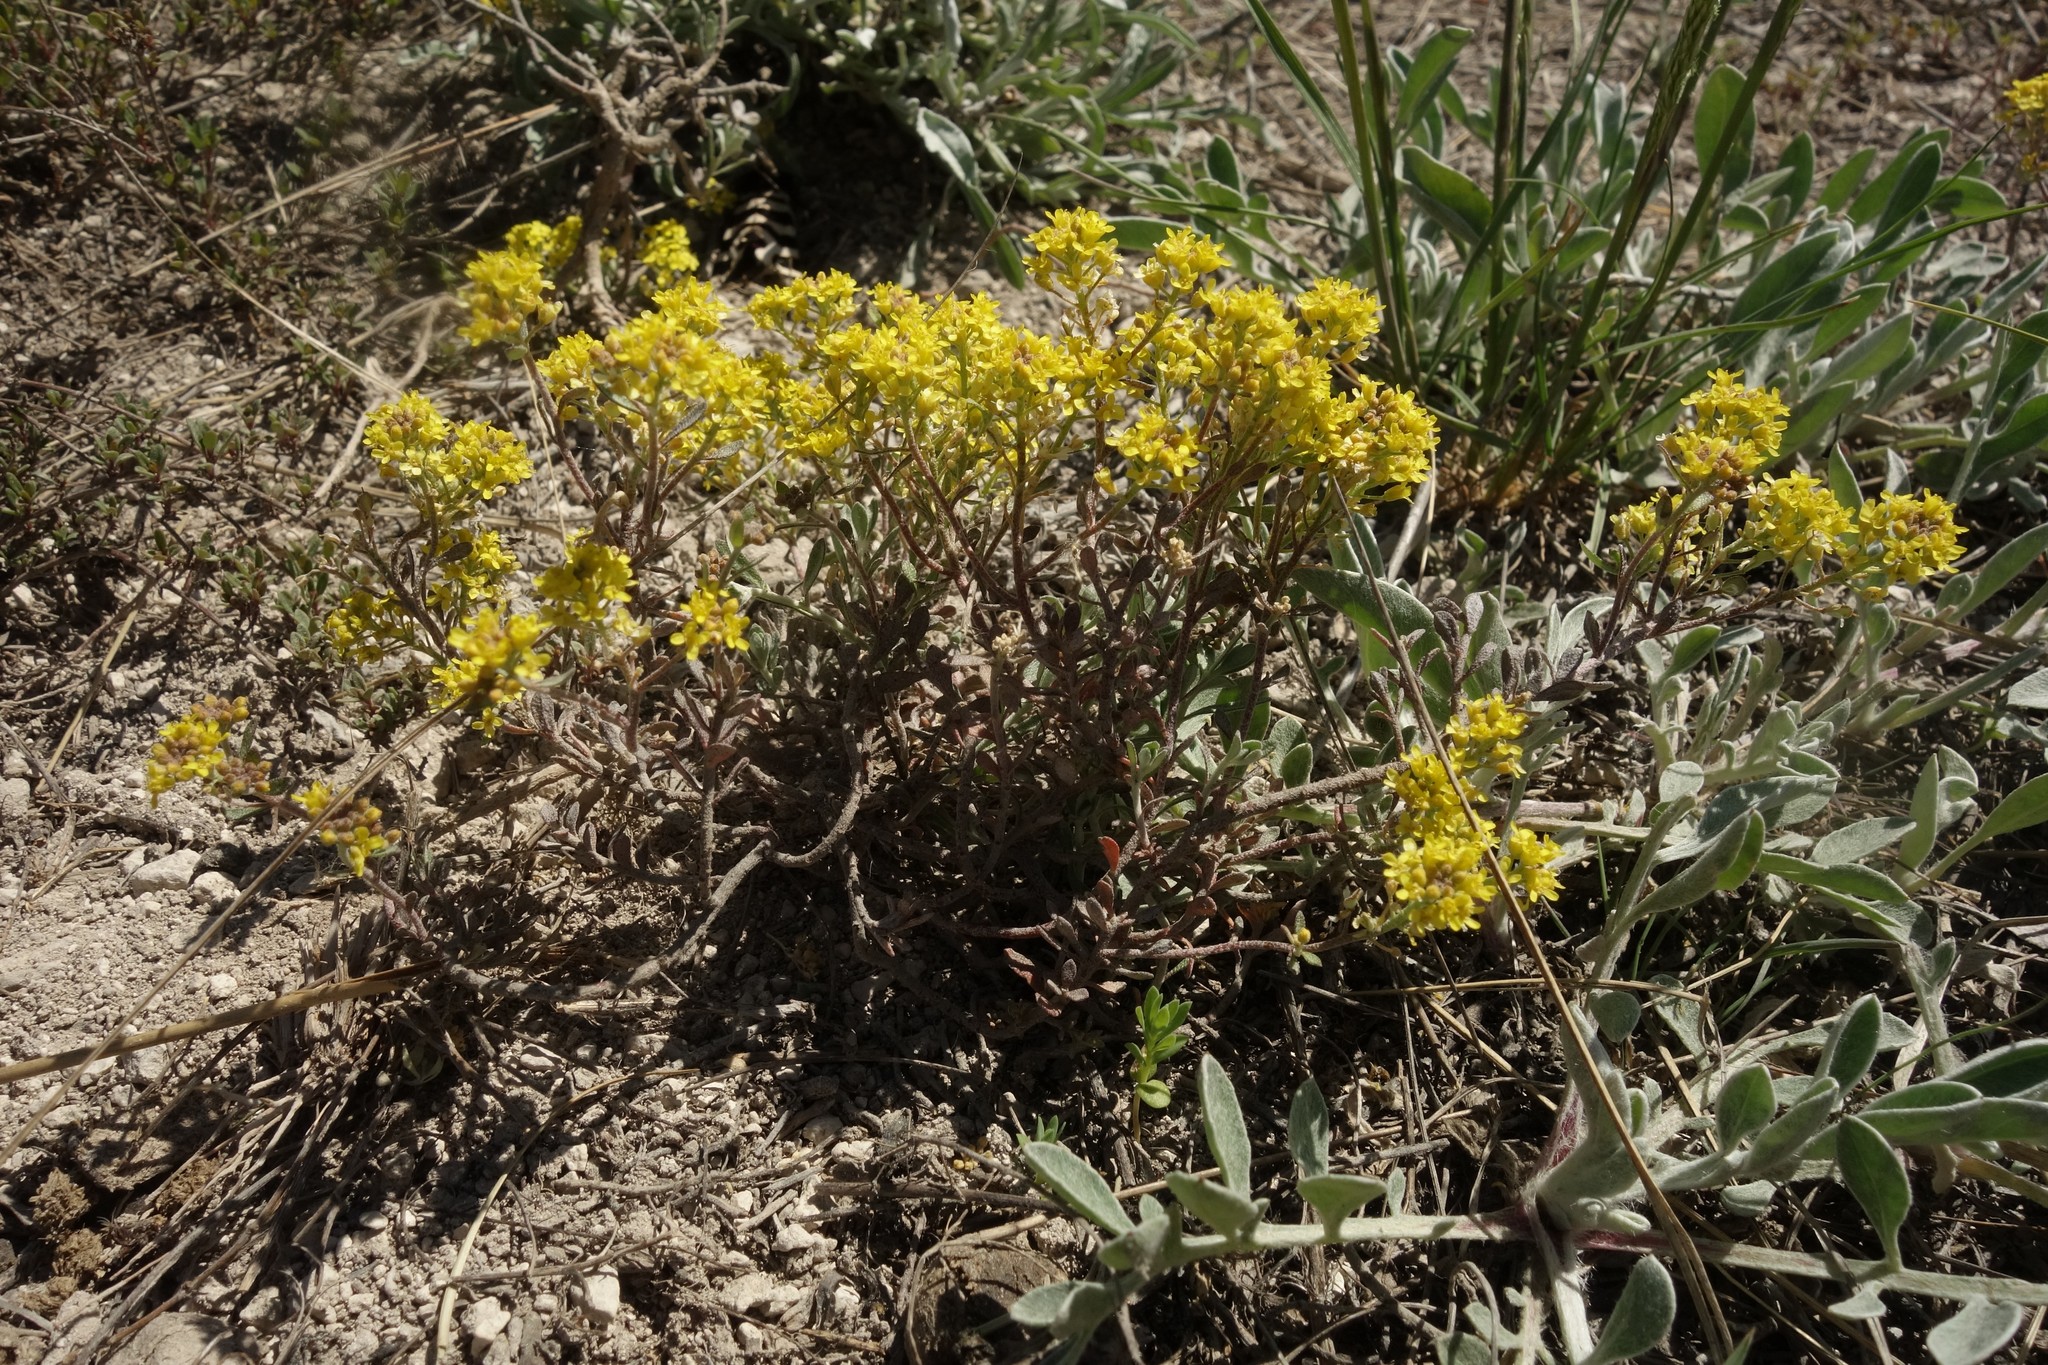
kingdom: Plantae
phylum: Tracheophyta
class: Magnoliopsida
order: Brassicales
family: Brassicaceae
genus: Odontarrhena
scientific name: Odontarrhena tortuosa
